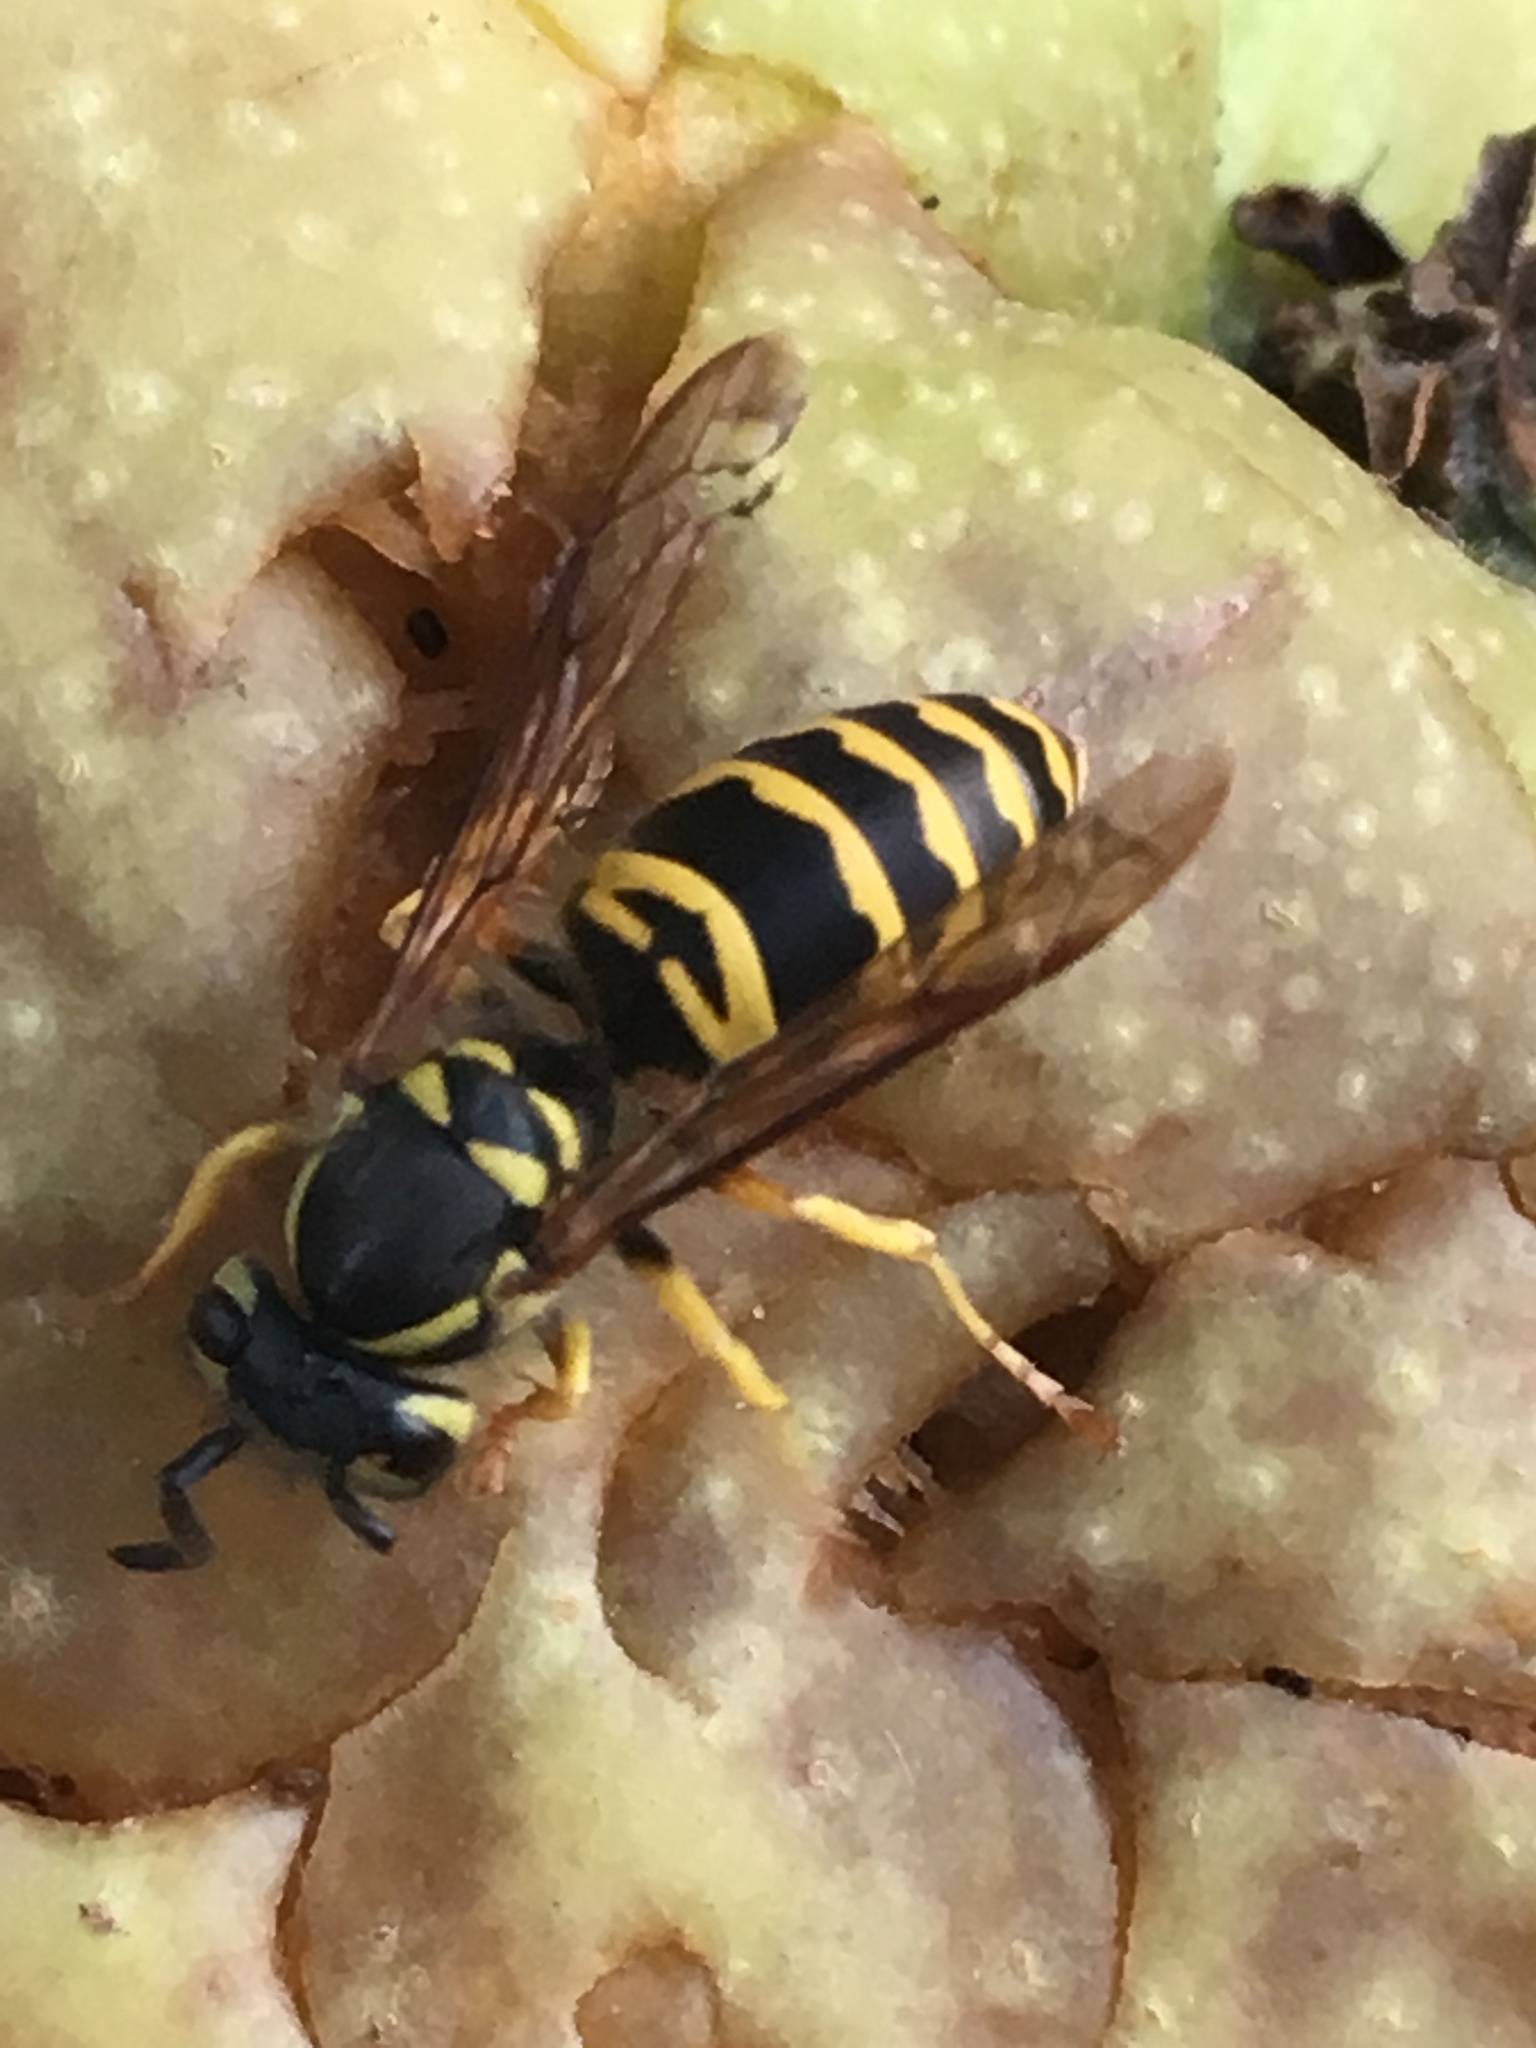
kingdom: Animalia
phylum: Arthropoda
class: Insecta
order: Hymenoptera
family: Vespidae
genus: Vespula
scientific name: Vespula maculifrons
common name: Eastern yellowjacket
